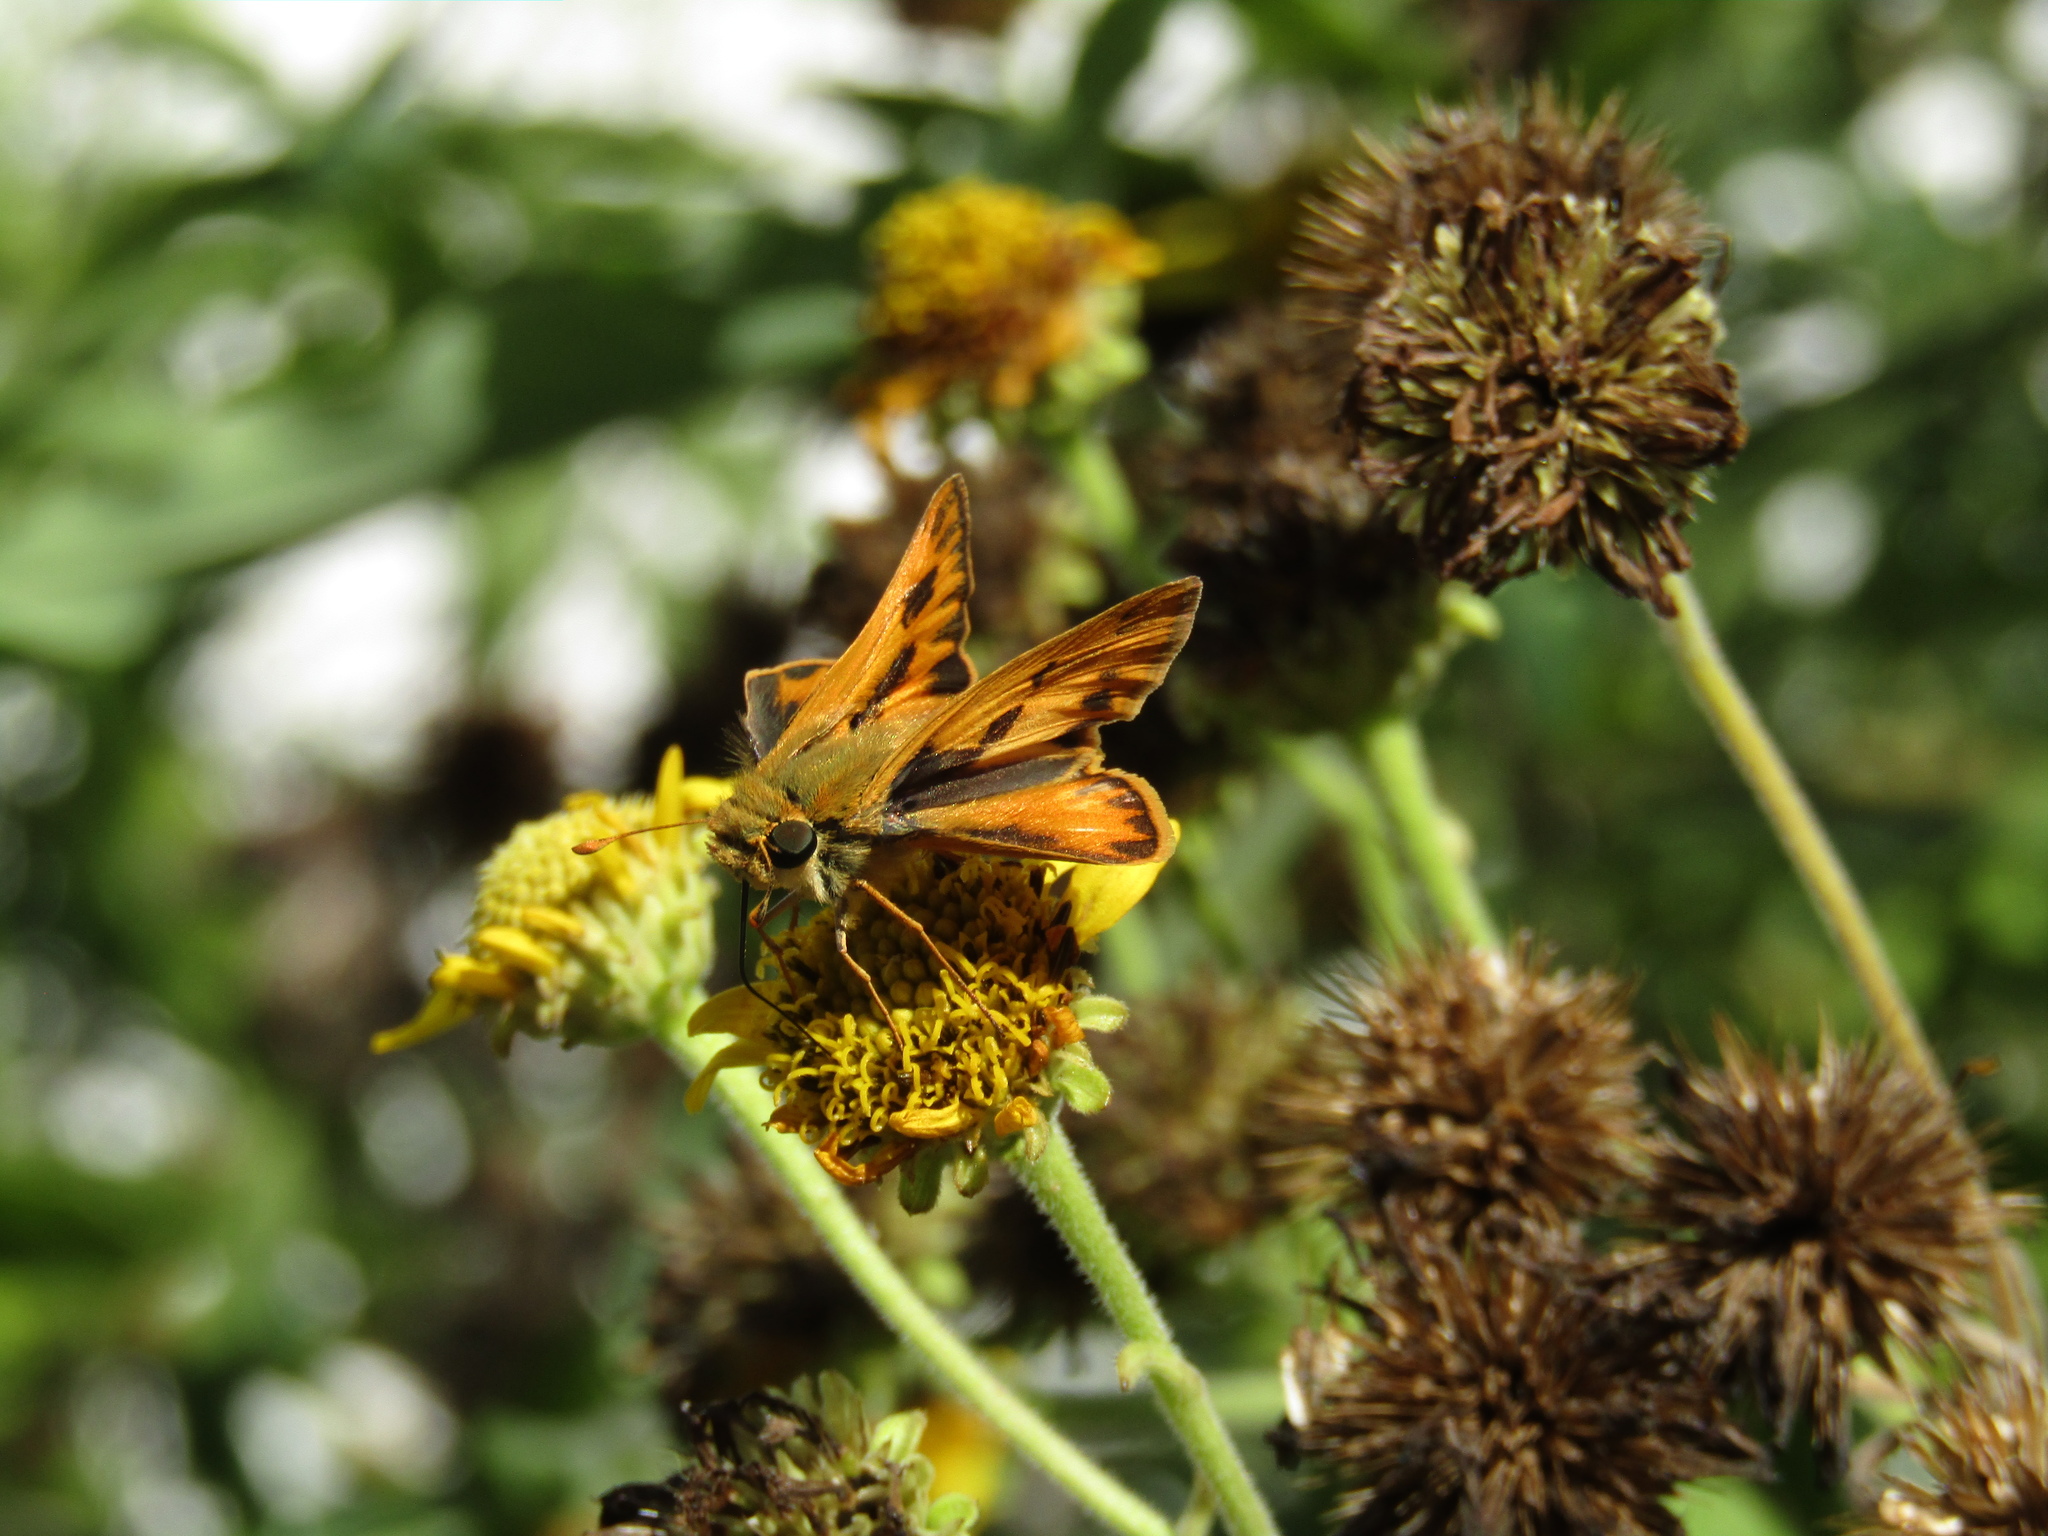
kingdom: Animalia
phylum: Arthropoda
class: Insecta
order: Lepidoptera
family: Hesperiidae
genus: Hylephila
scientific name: Hylephila phyleus
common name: Fiery skipper
